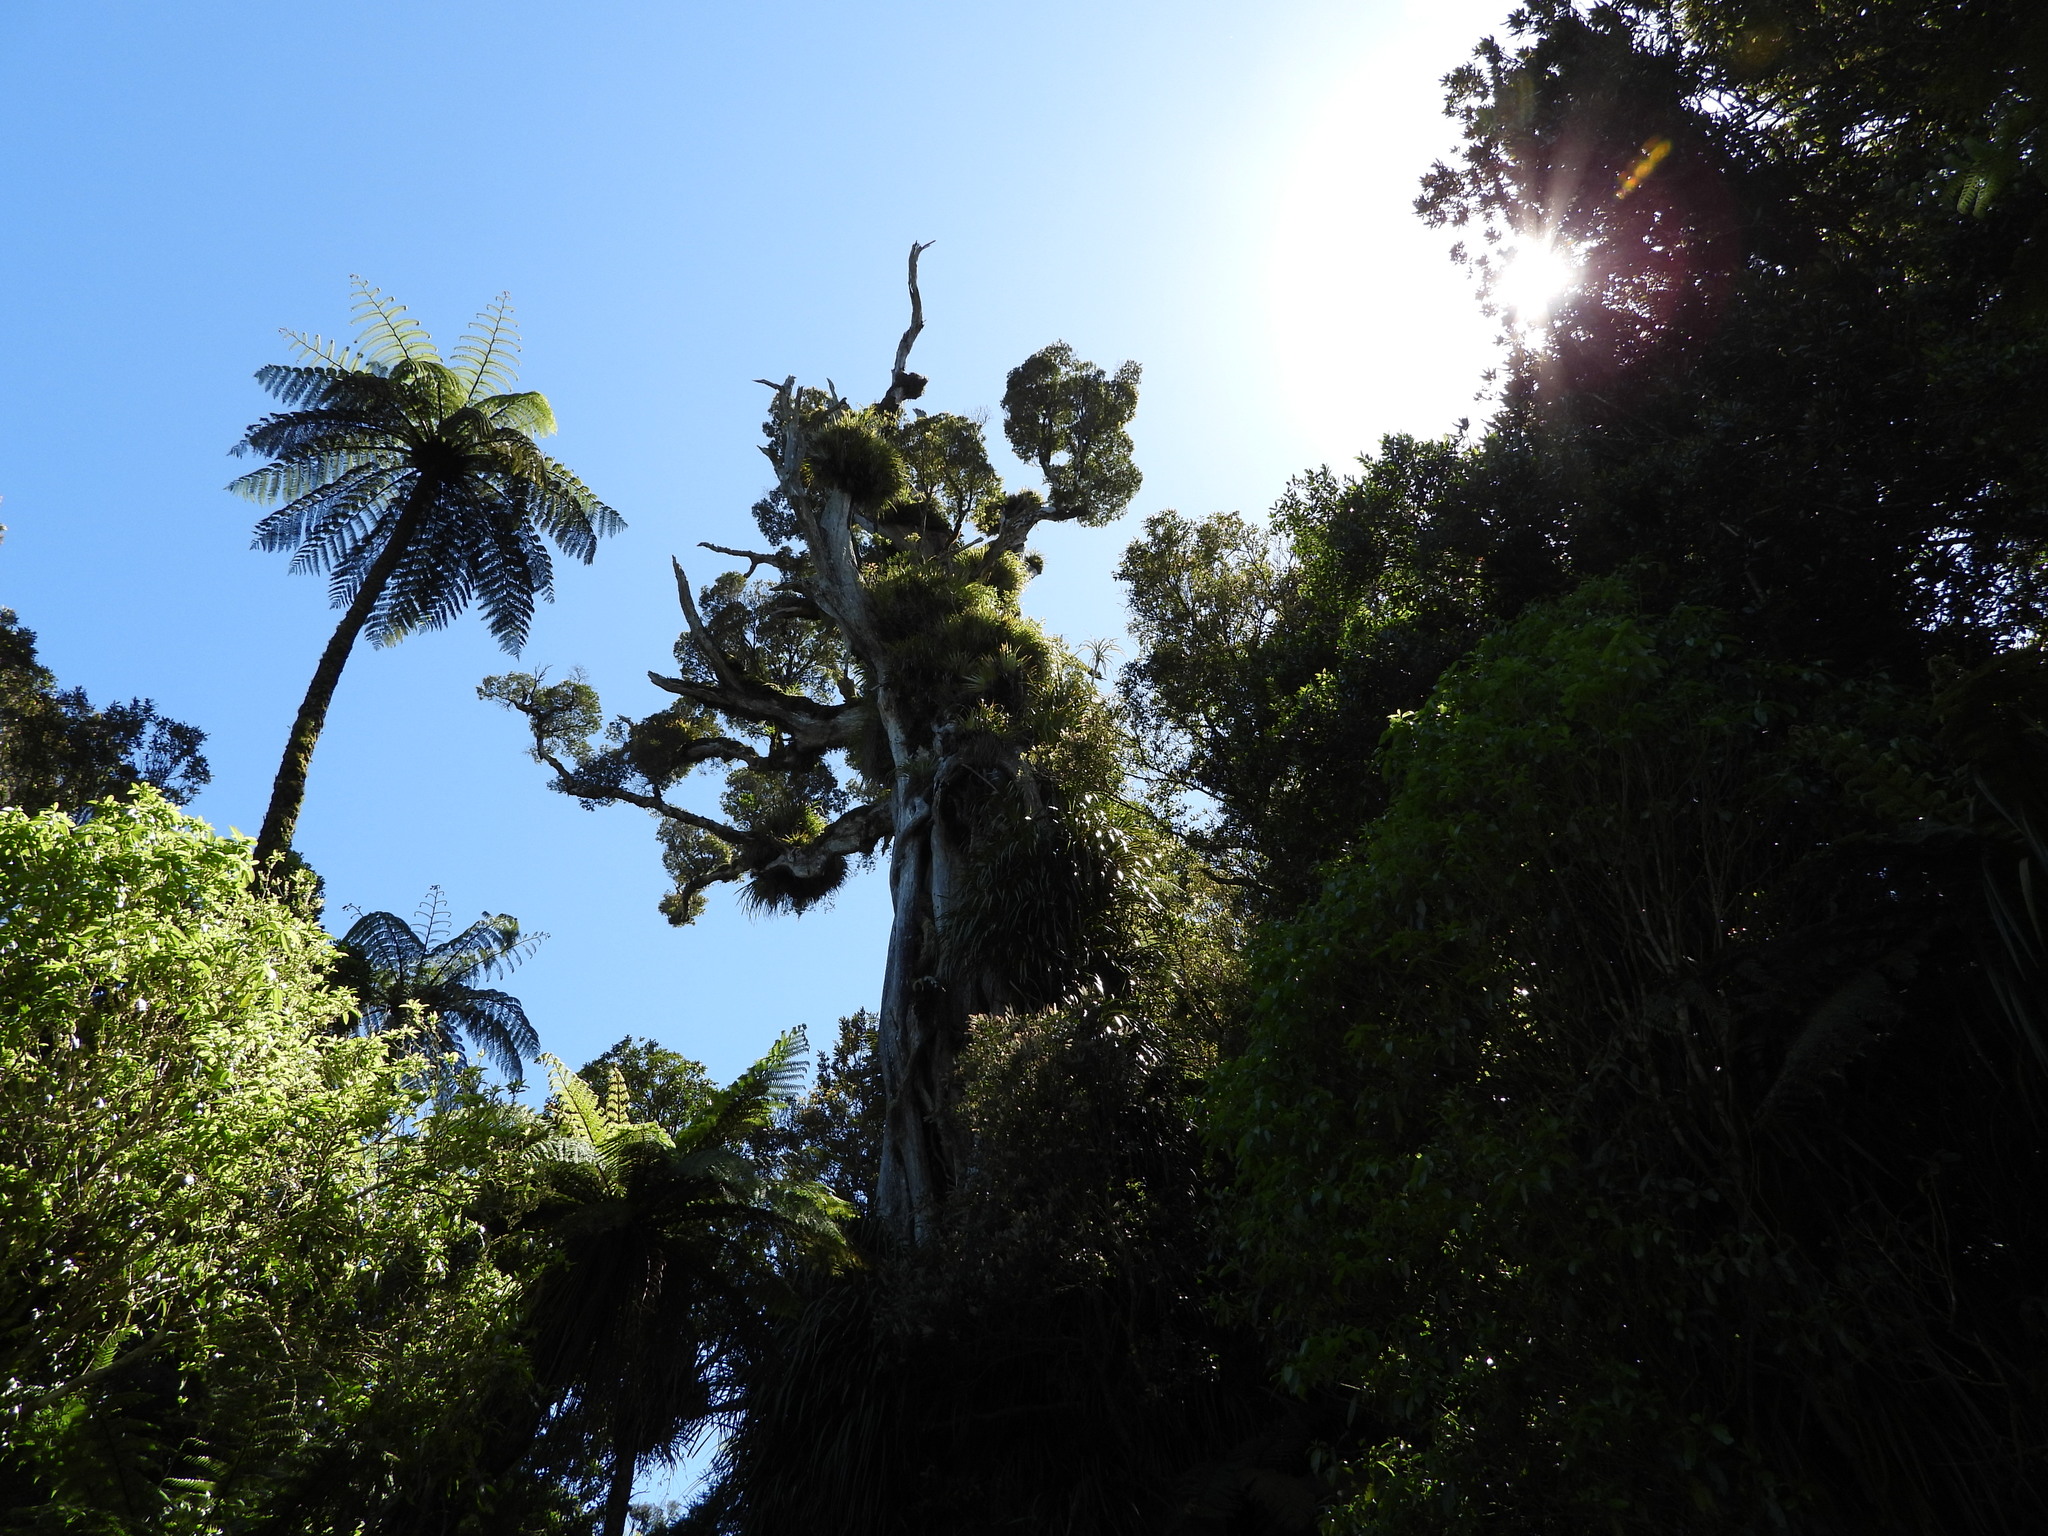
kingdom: Plantae
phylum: Tracheophyta
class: Magnoliopsida
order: Myrtales
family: Myrtaceae
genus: Metrosideros
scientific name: Metrosideros robusta
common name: Northern rata
